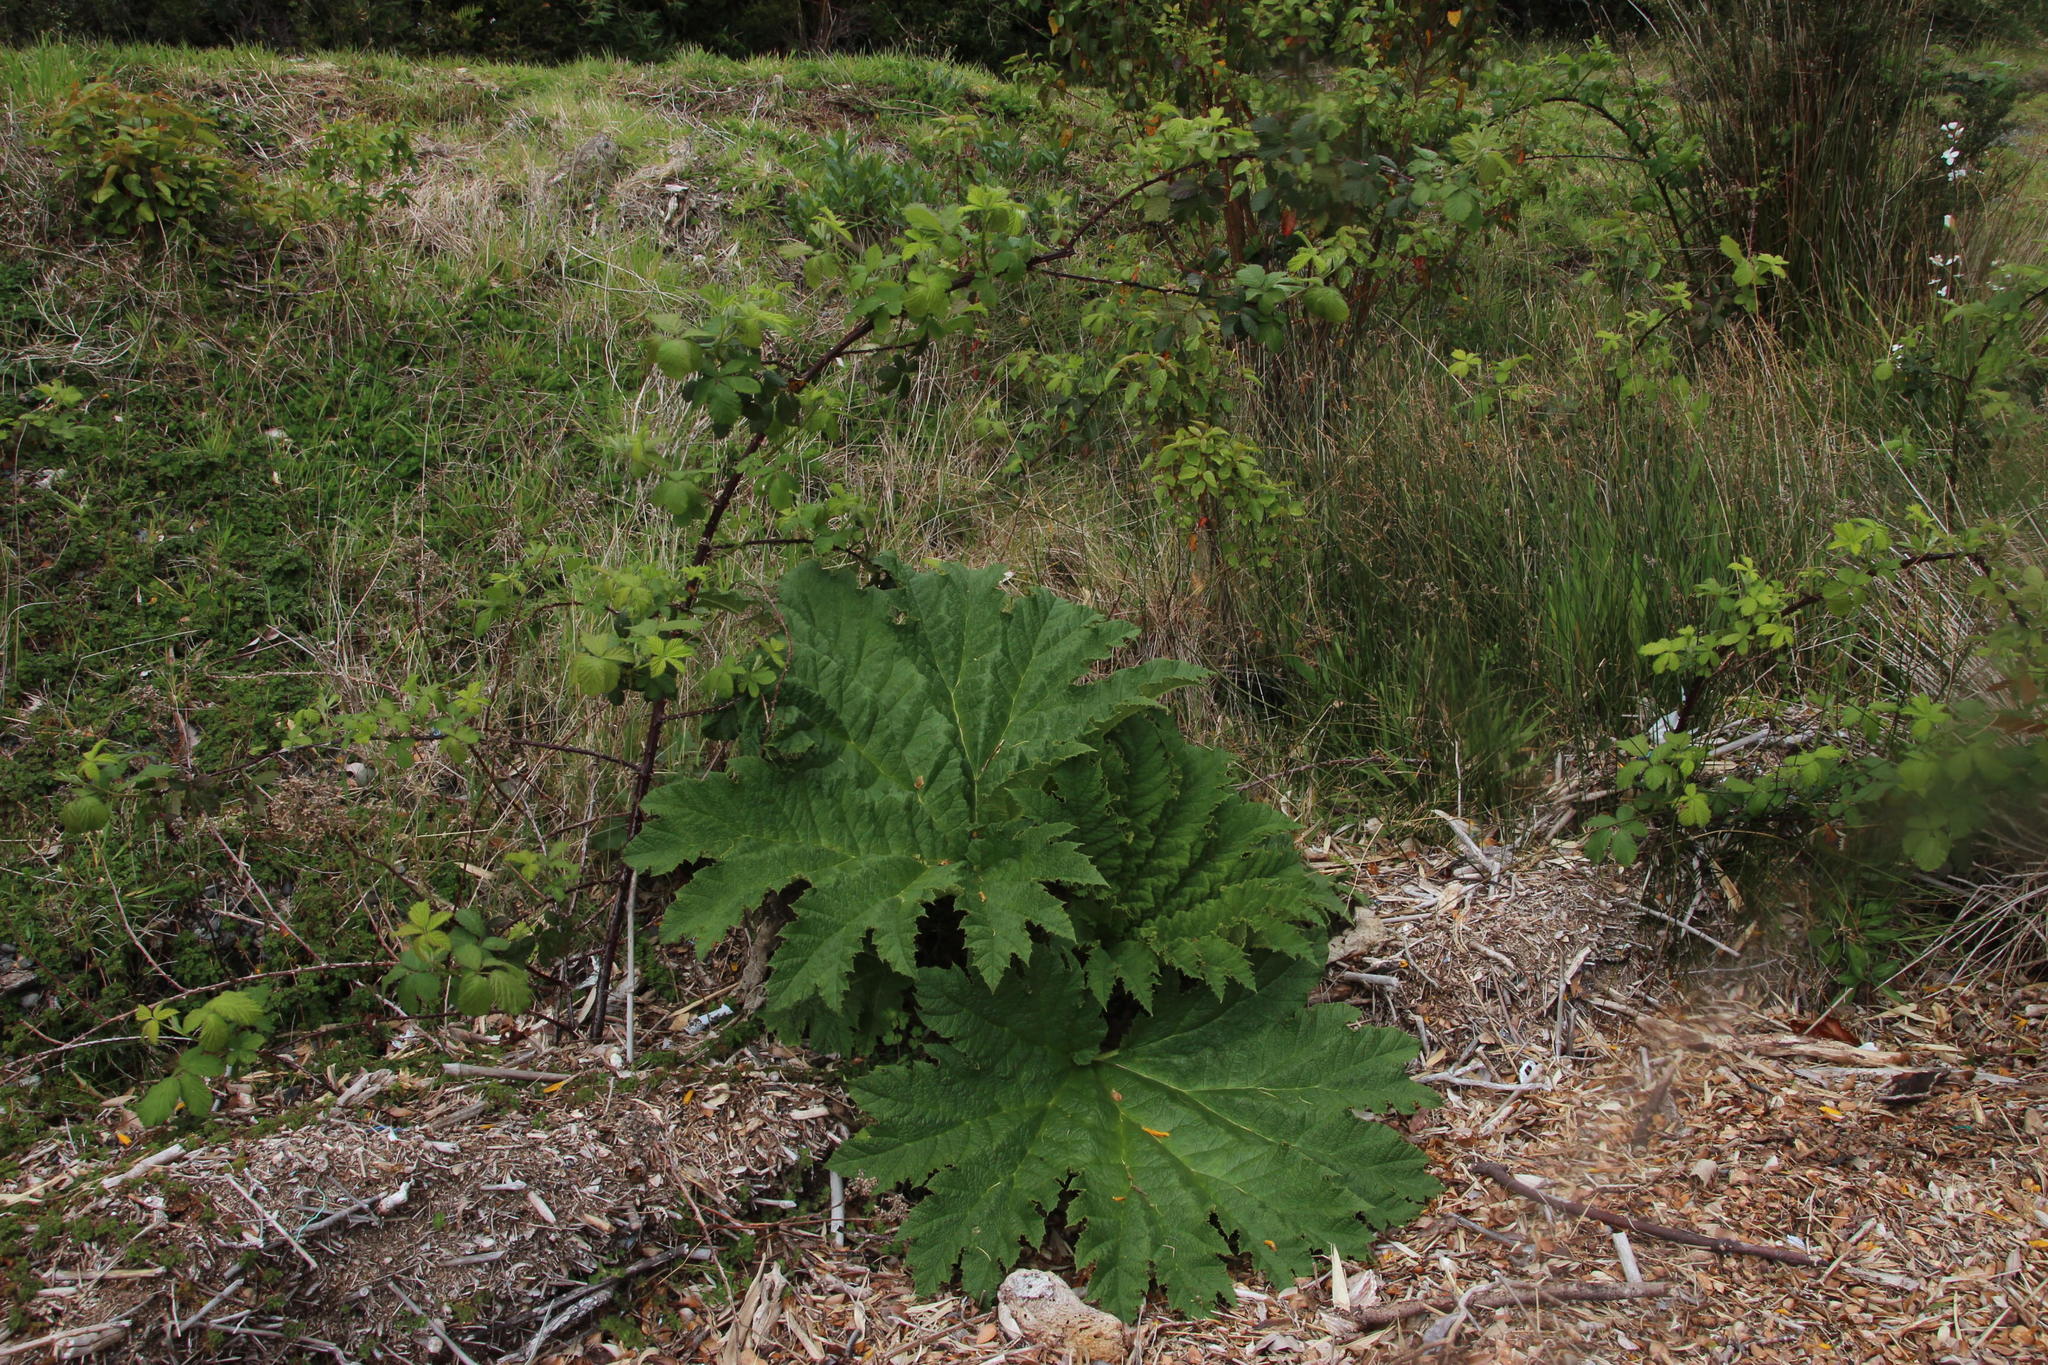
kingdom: Plantae
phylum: Tracheophyta
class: Magnoliopsida
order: Gunnerales
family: Gunneraceae
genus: Gunnera
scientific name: Gunnera tinctoria
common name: Giant-rhubarb
